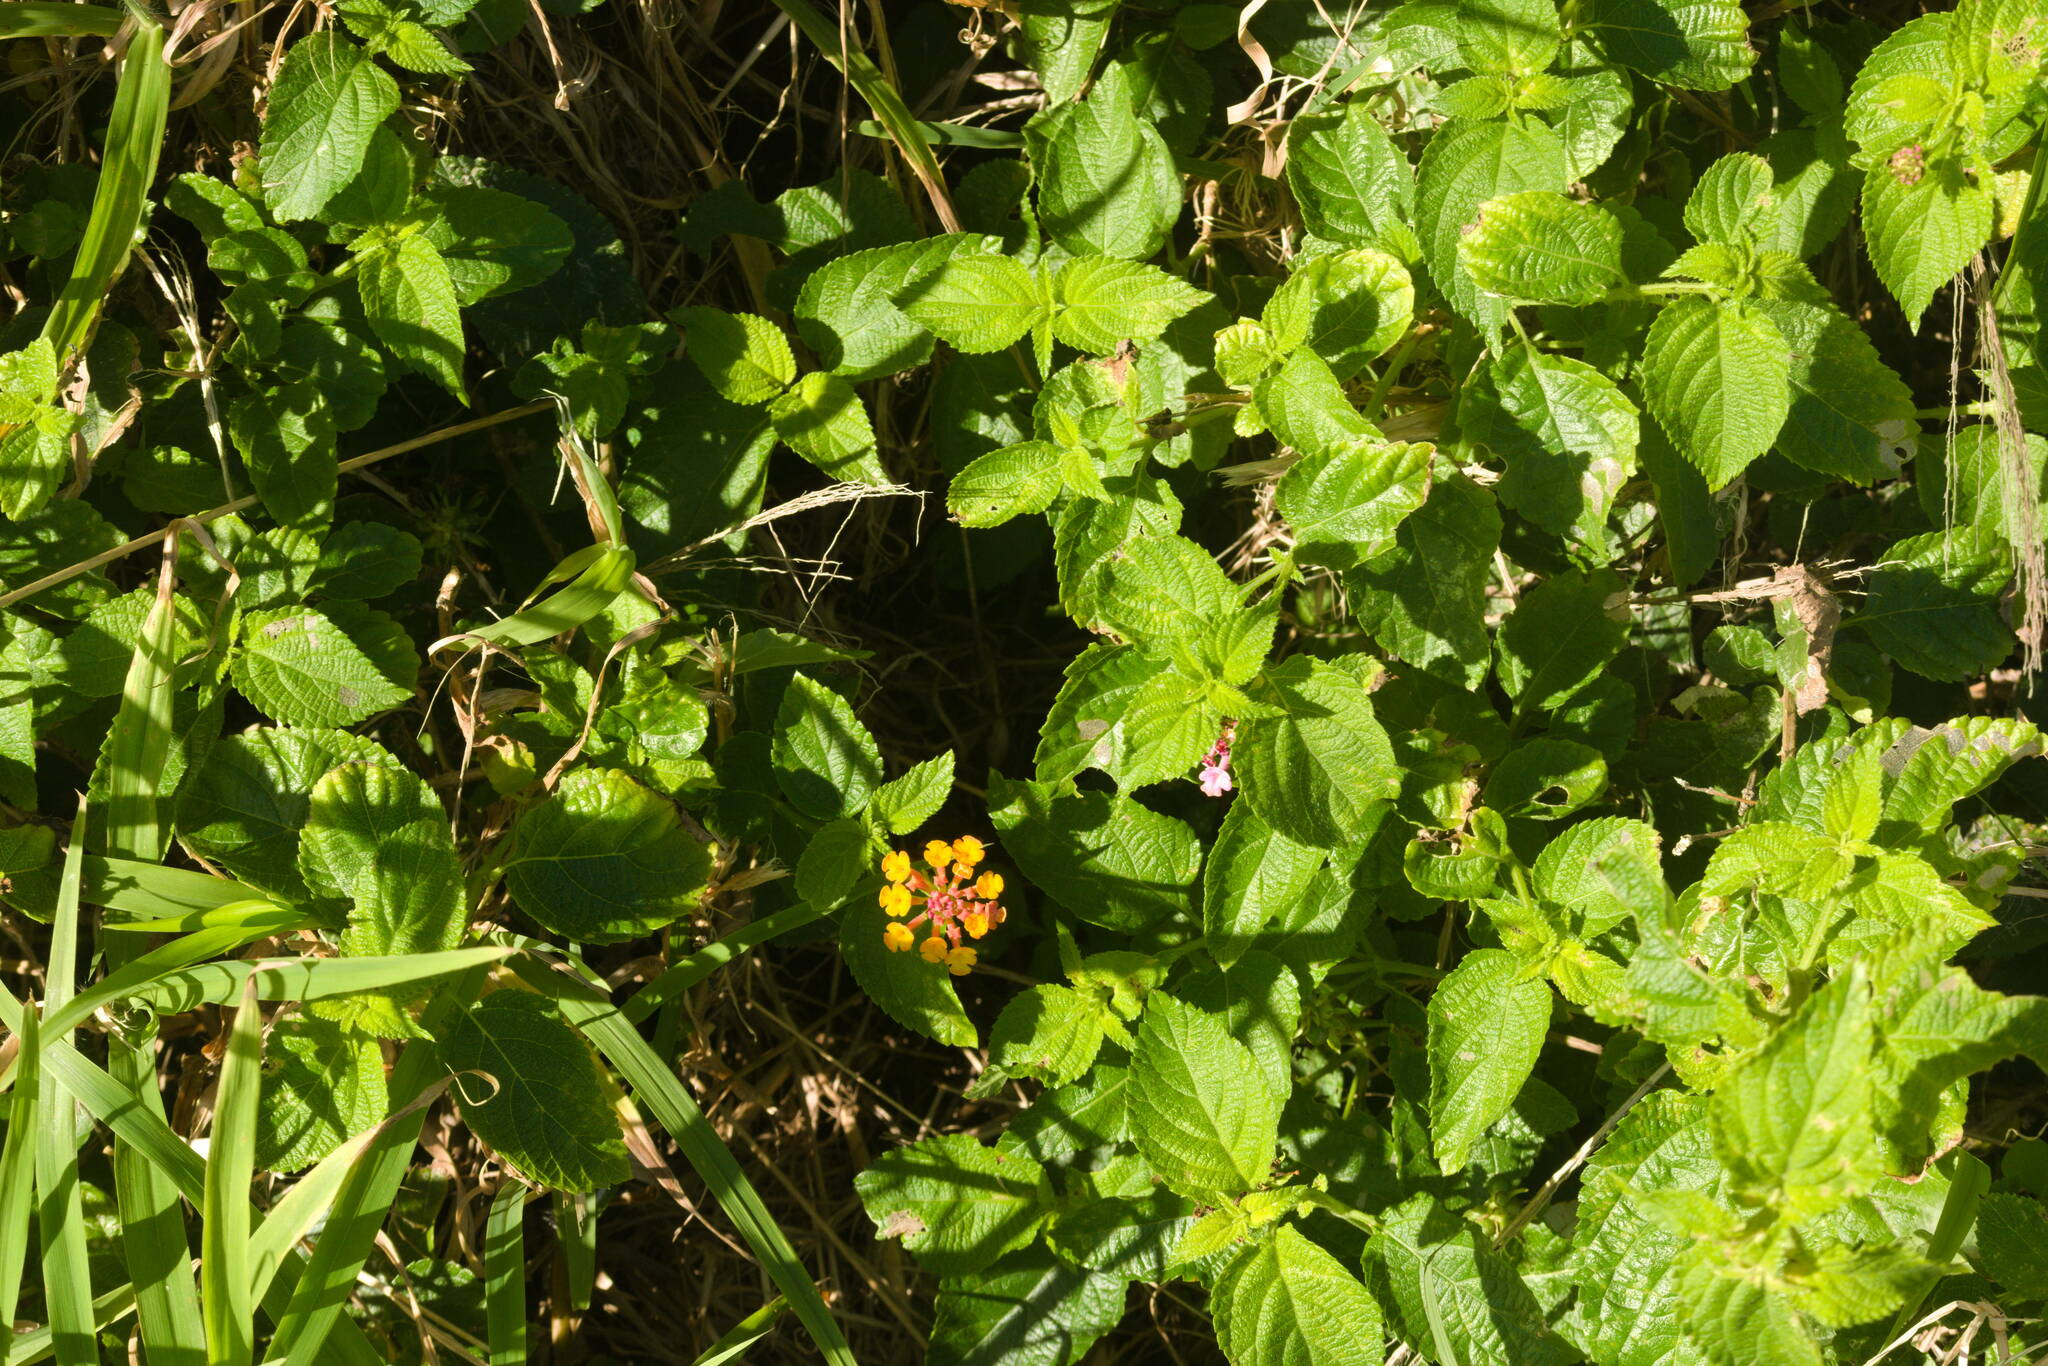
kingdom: Plantae
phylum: Tracheophyta
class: Magnoliopsida
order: Lamiales
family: Verbenaceae
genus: Lantana
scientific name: Lantana camara
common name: Lantana
